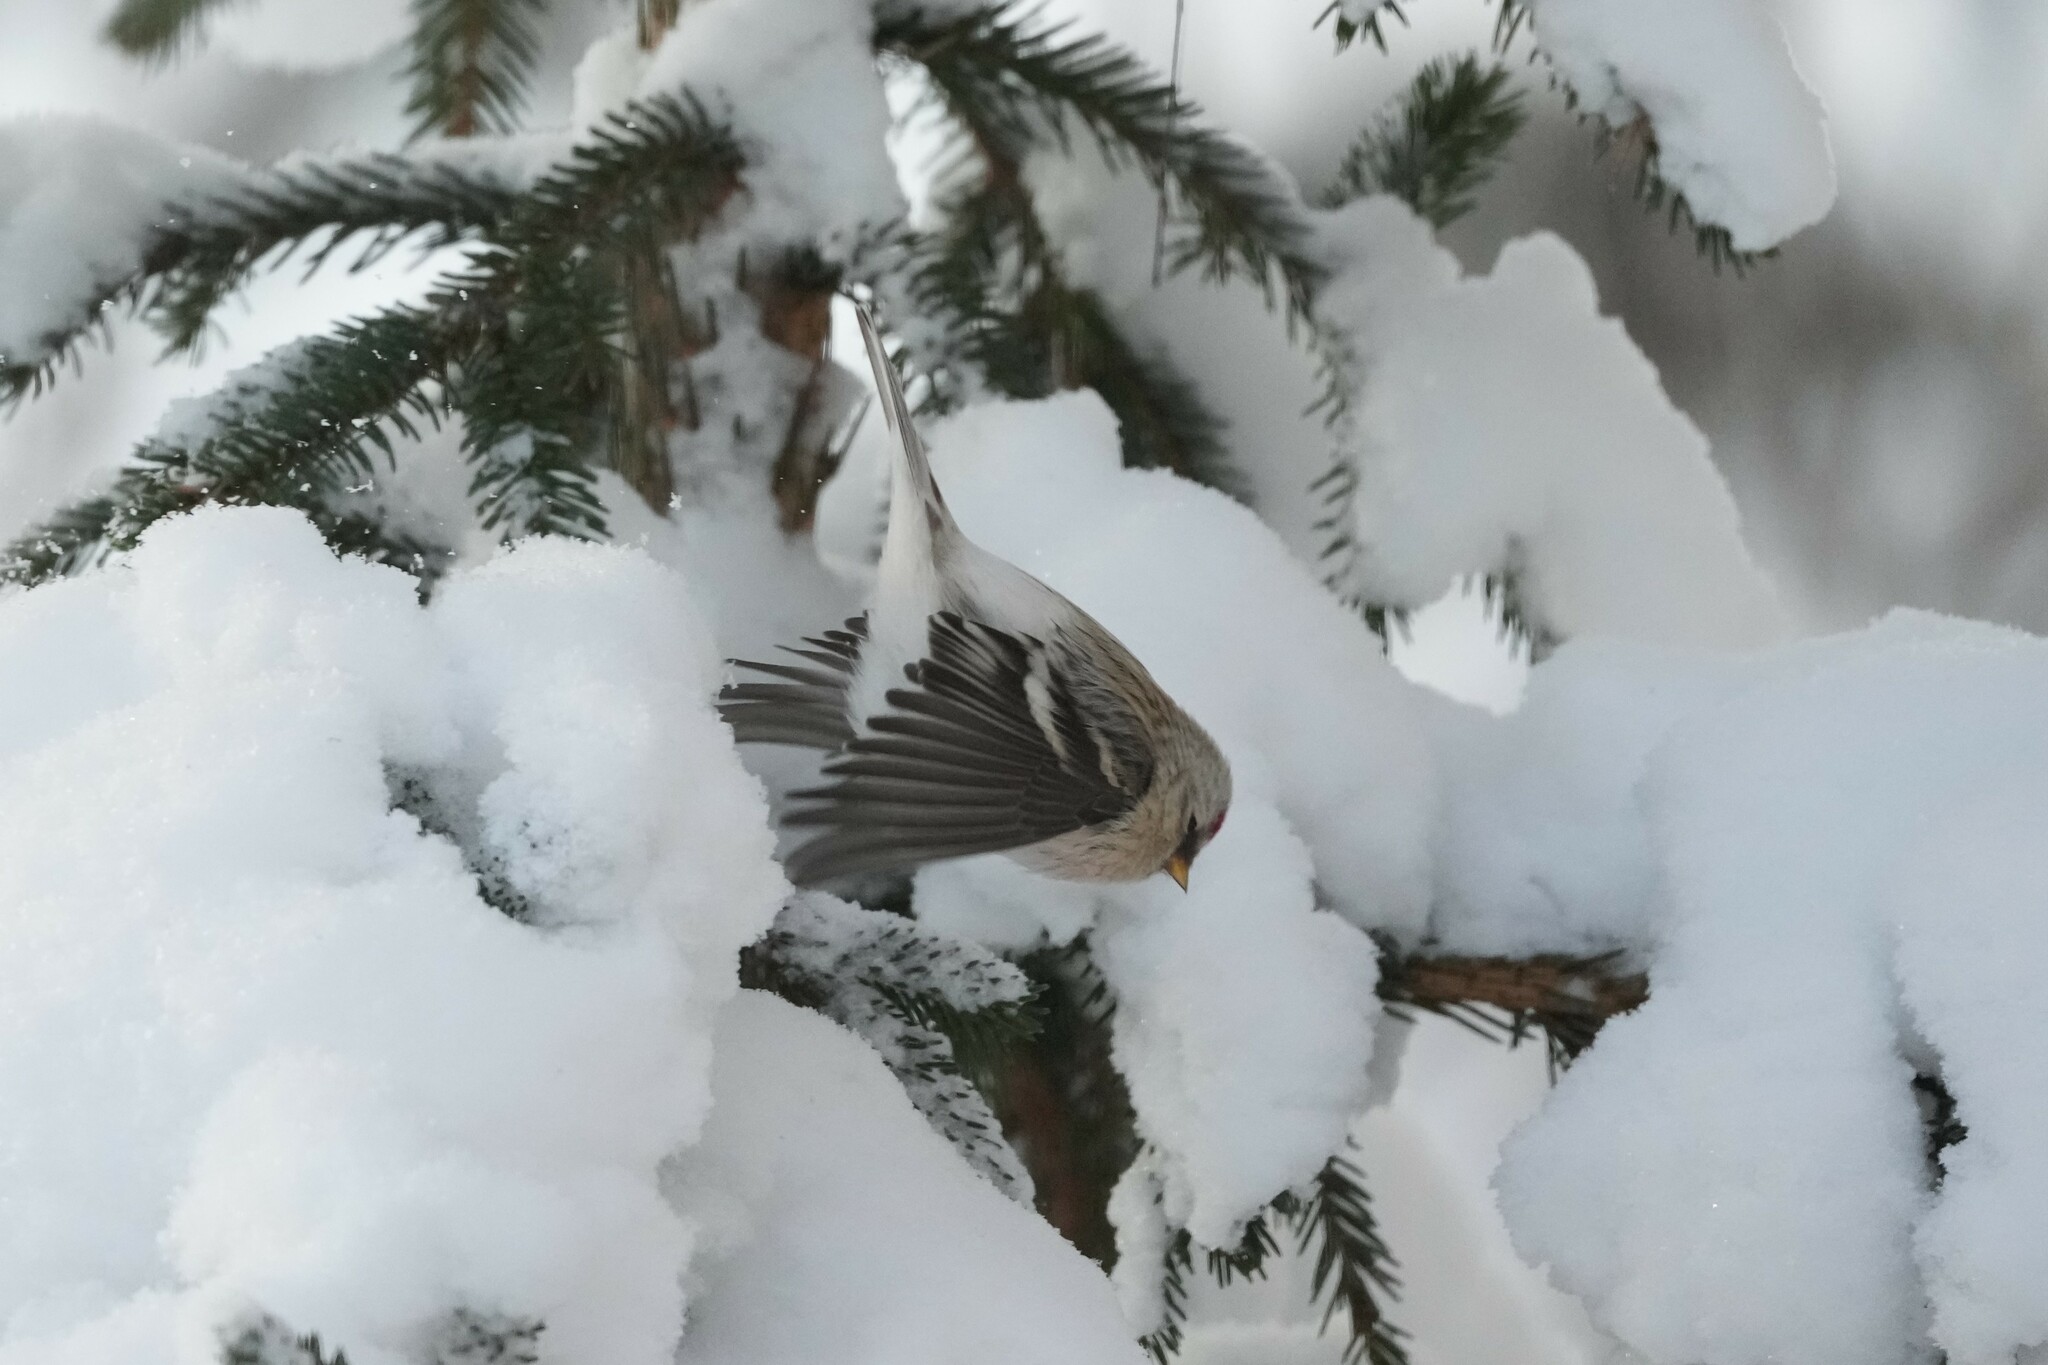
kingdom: Animalia
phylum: Chordata
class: Aves
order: Passeriformes
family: Fringillidae
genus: Acanthis
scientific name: Acanthis hornemanni
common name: Arctic redpoll
